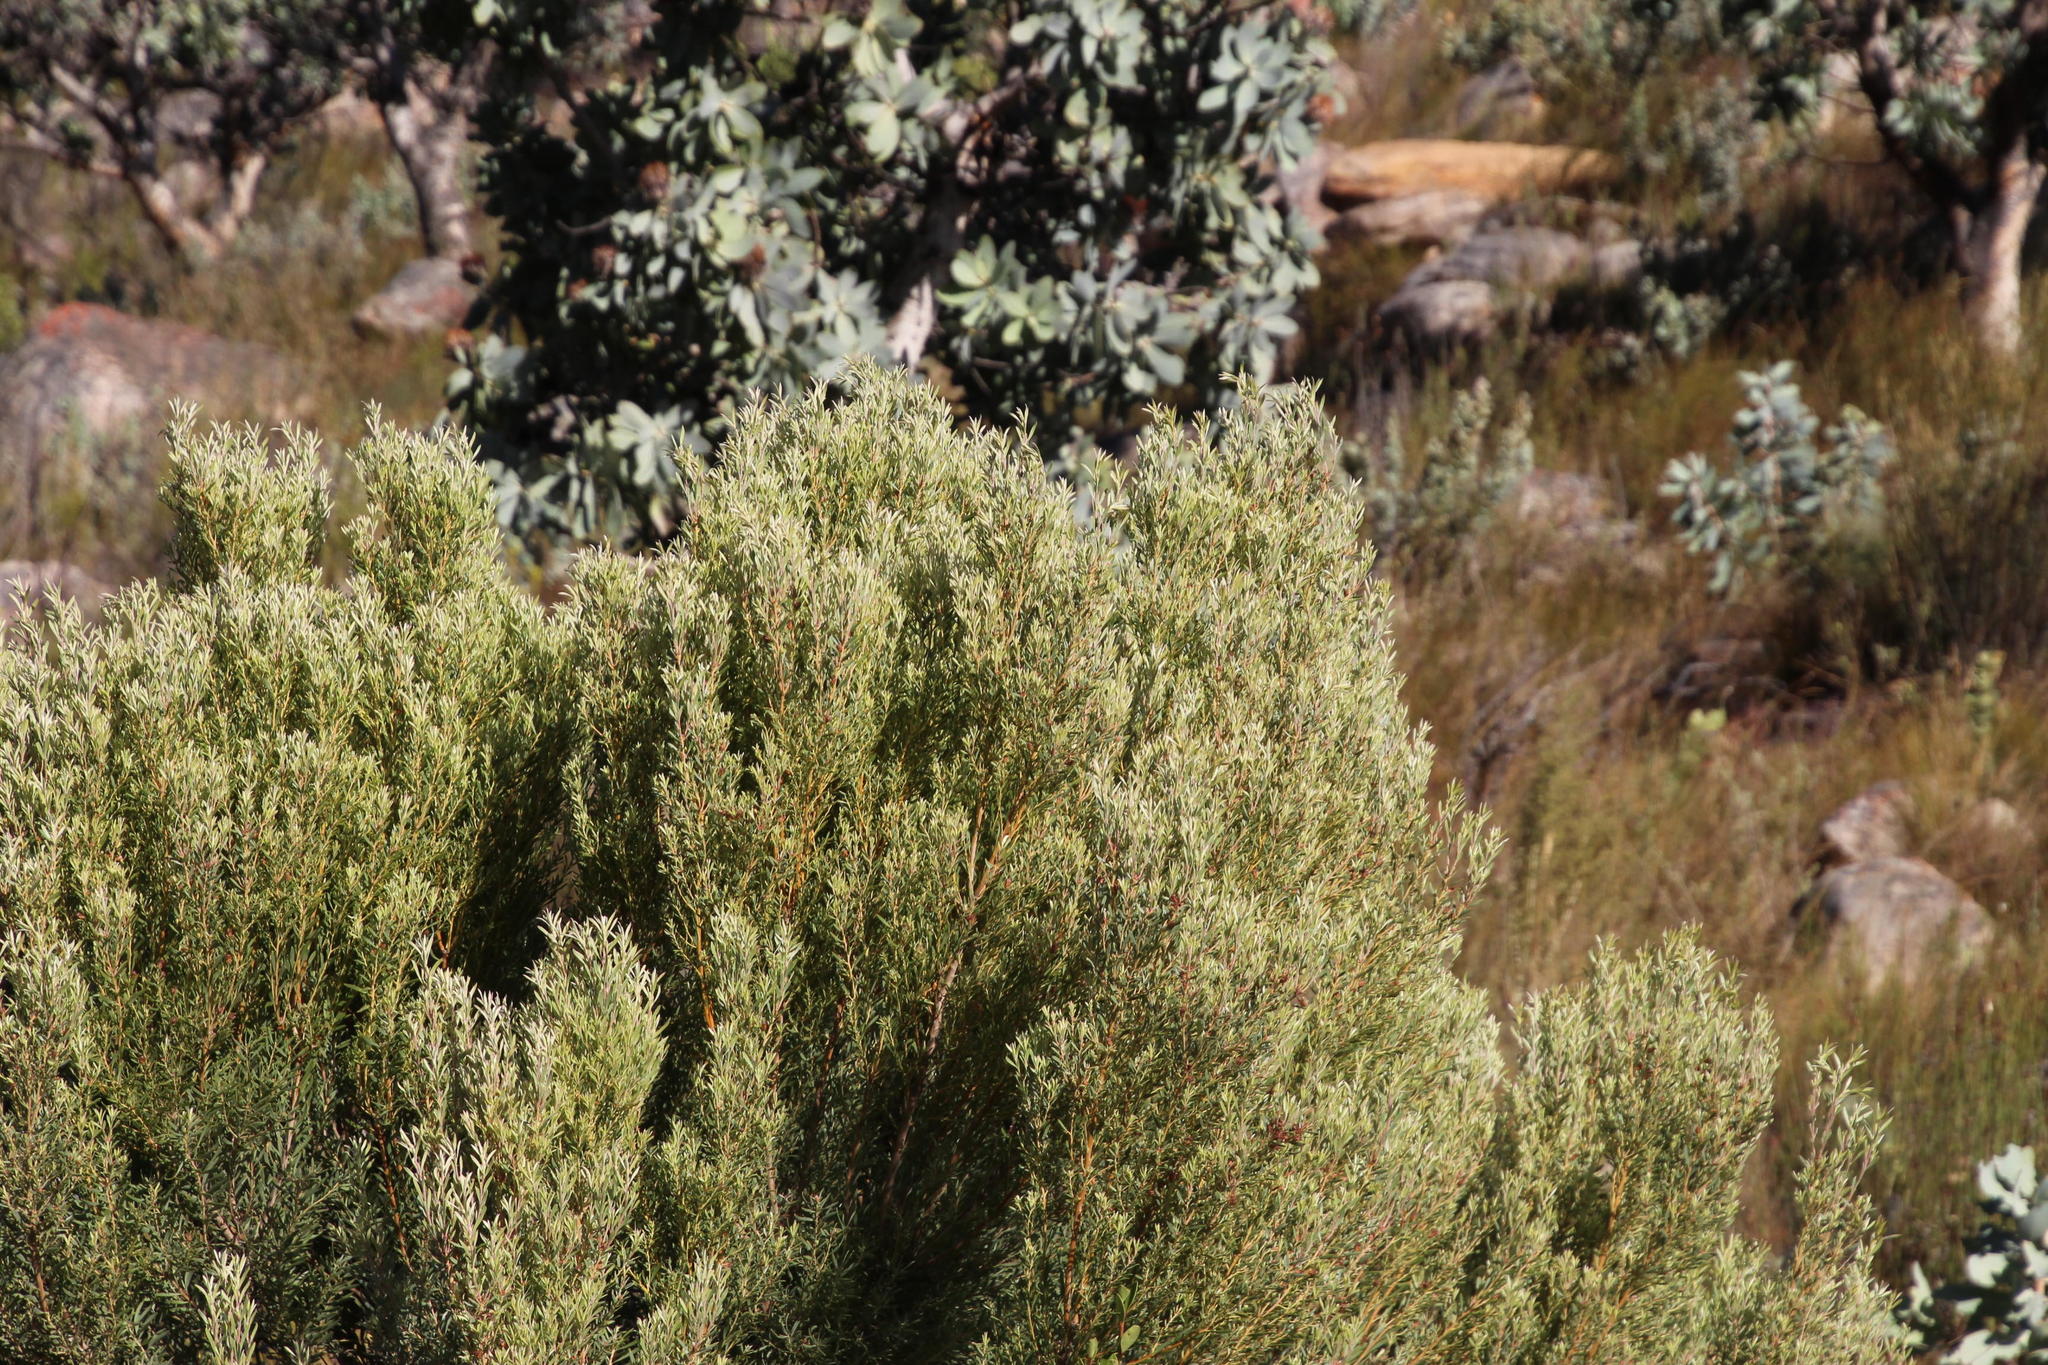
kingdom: Plantae
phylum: Tracheophyta
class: Magnoliopsida
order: Proteales
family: Proteaceae
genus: Leucadendron
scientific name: Leucadendron rubrum
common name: Spinning top
